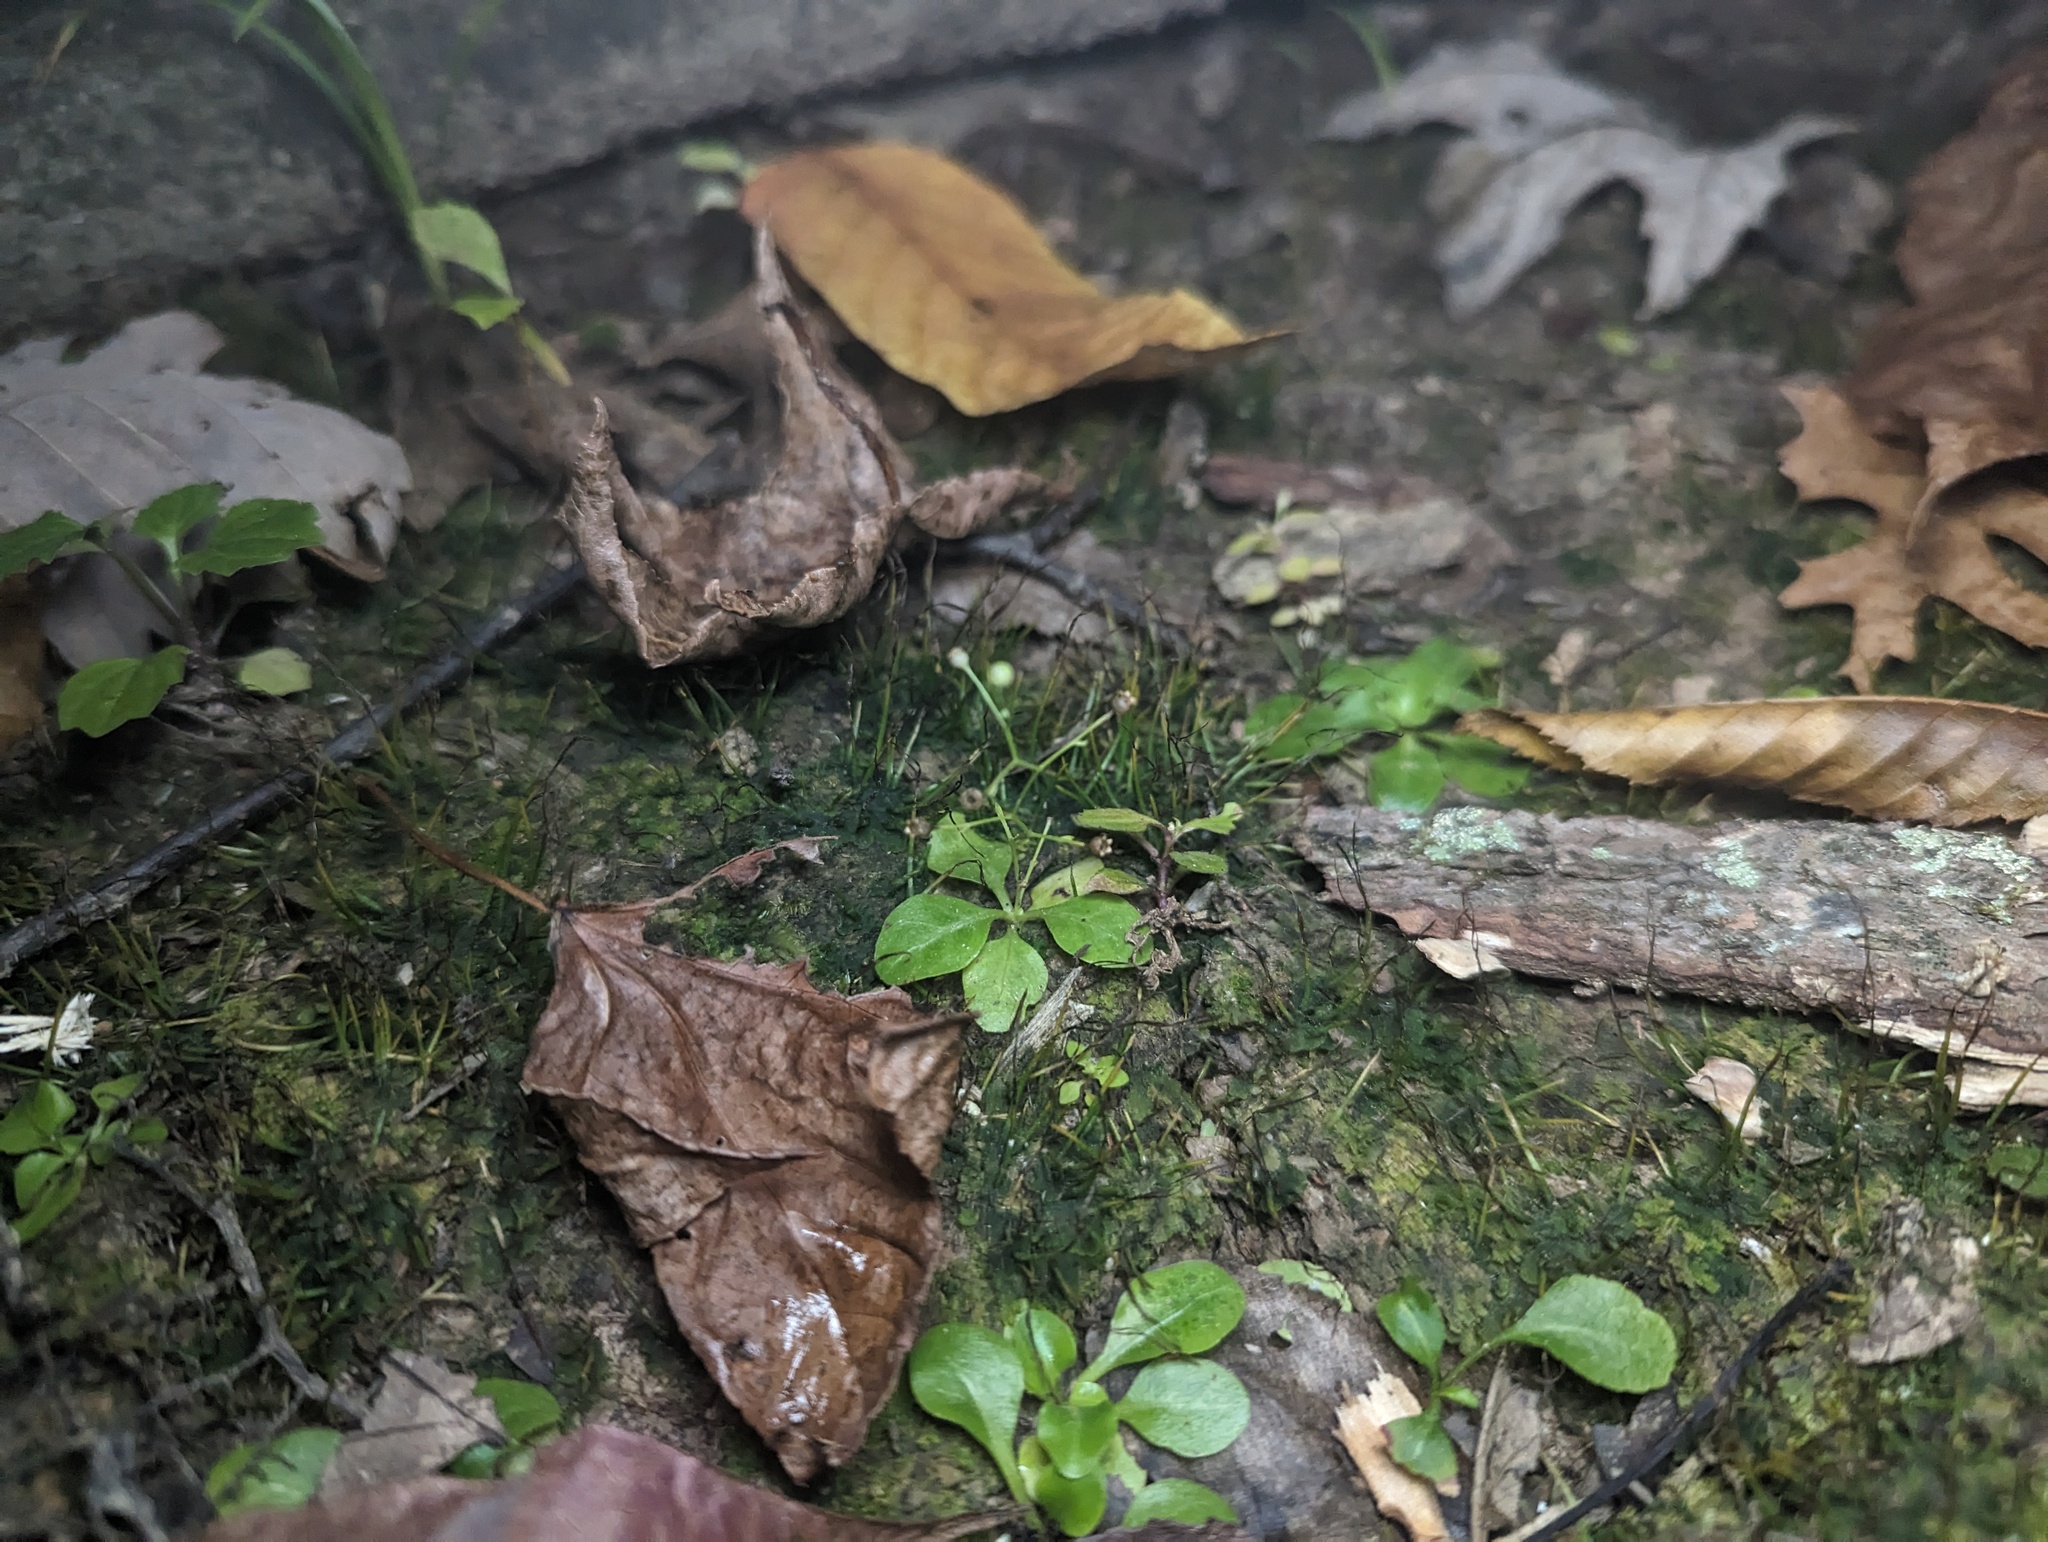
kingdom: Plantae
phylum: Tracheophyta
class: Magnoliopsida
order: Ericales
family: Primulaceae
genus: Samolus
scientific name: Samolus parviflorus
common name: False water pimpernel
